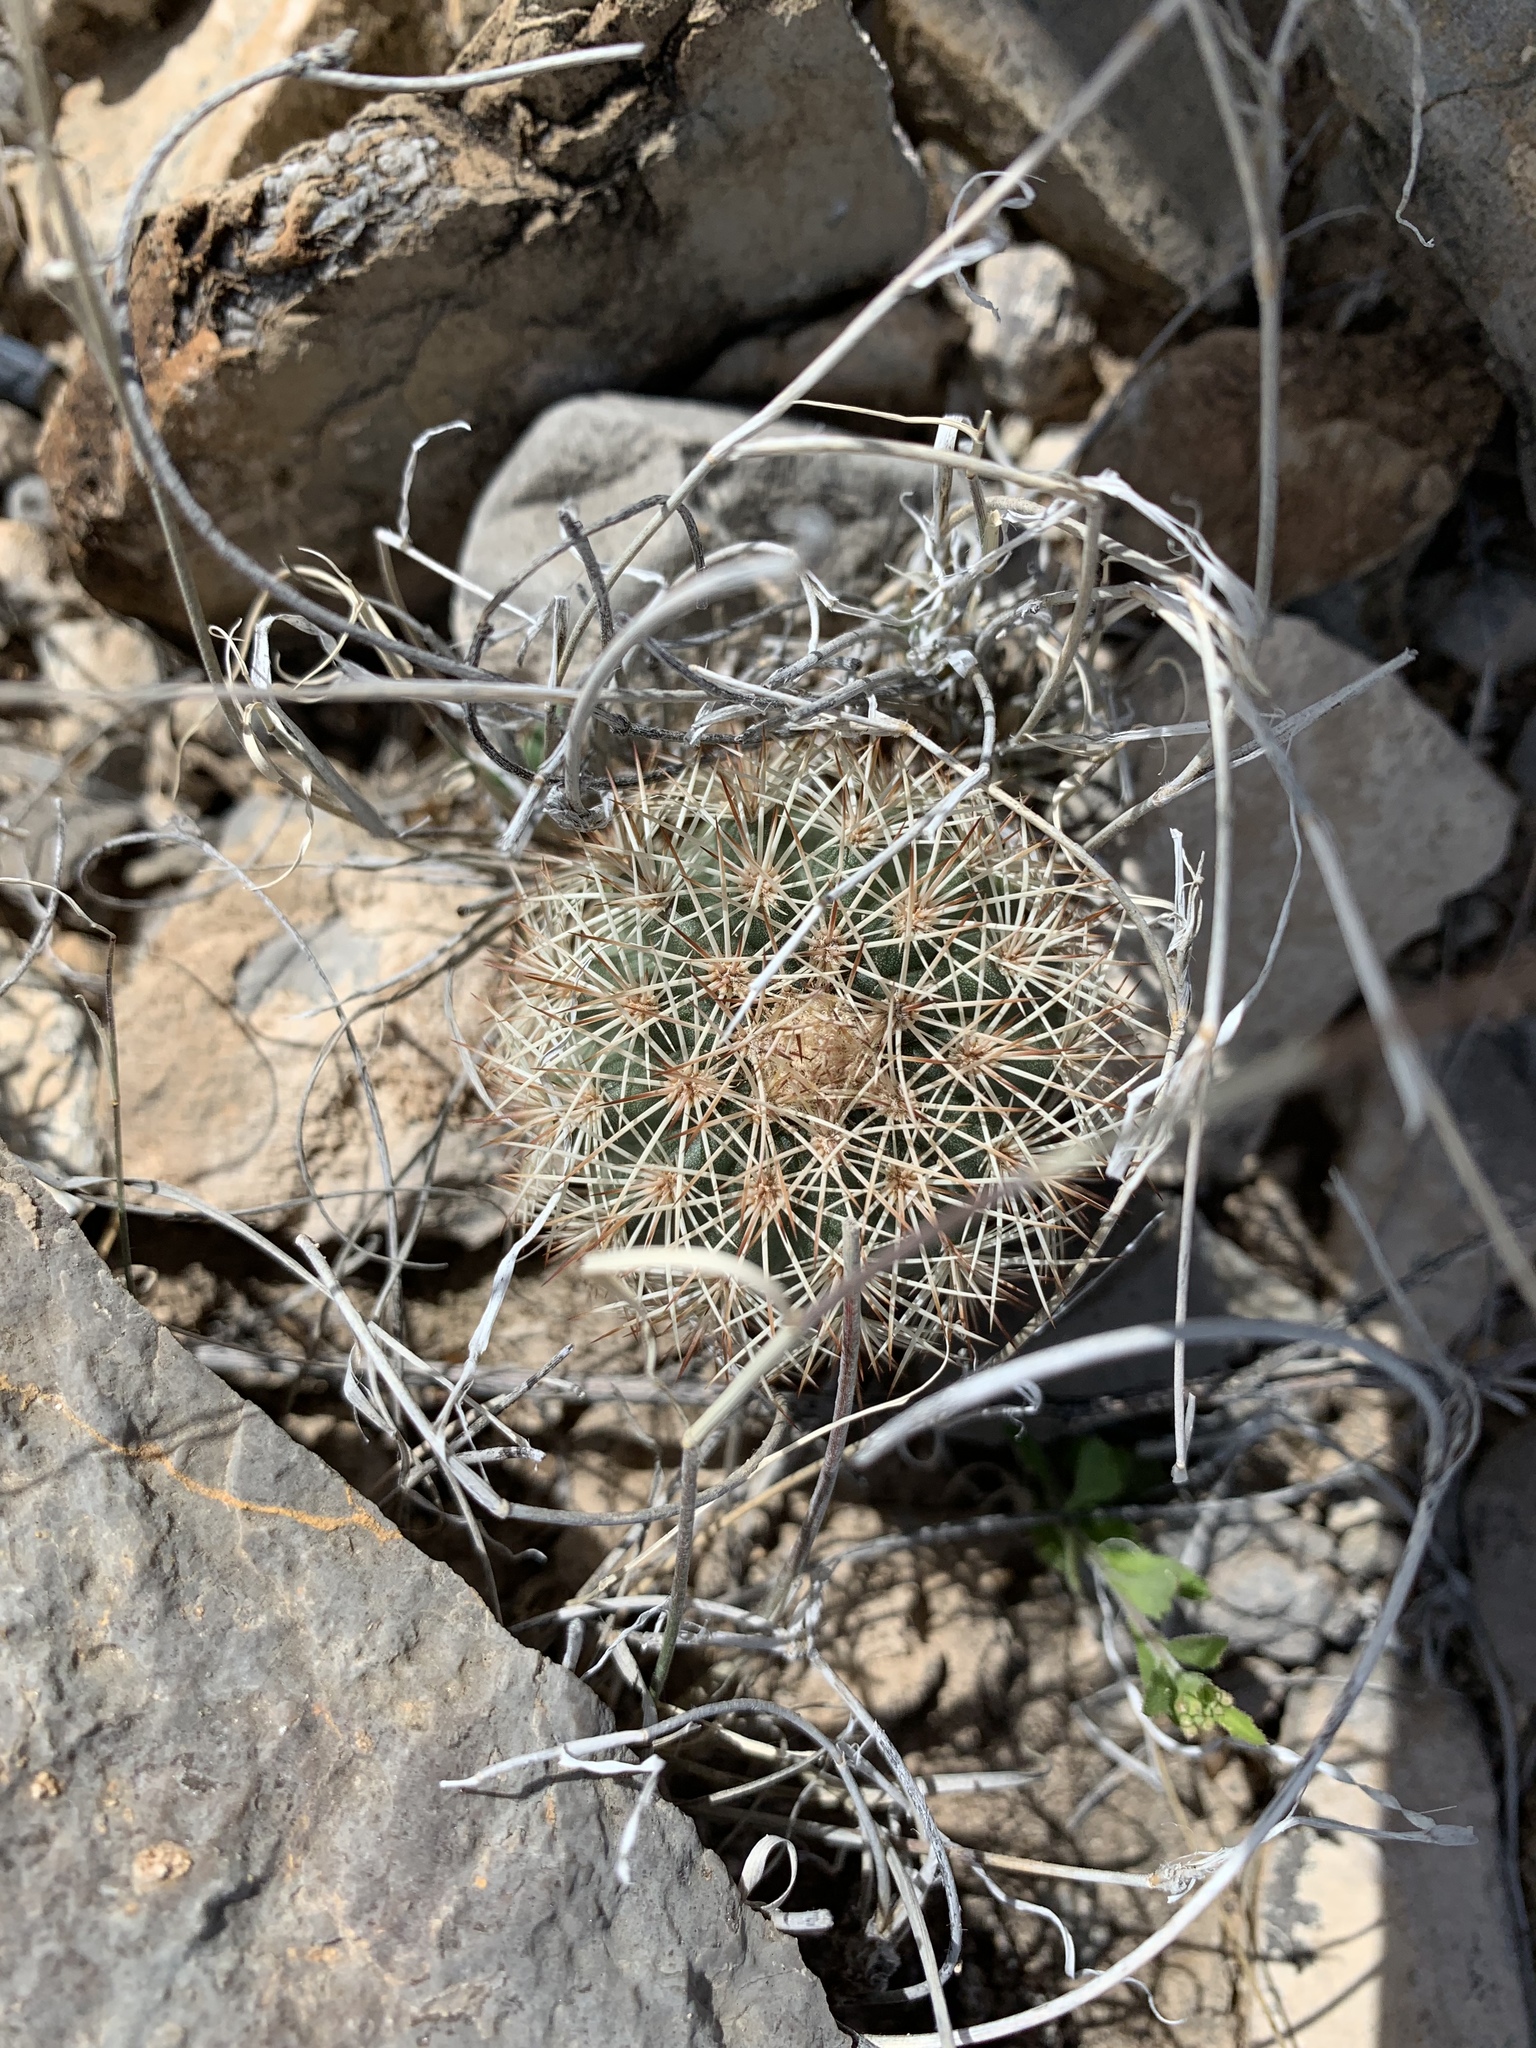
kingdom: Plantae
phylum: Tracheophyta
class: Magnoliopsida
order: Caryophyllales
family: Cactaceae
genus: Echinocereus
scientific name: Echinocereus dasyacanthus
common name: Spiny hedgehog cactus
